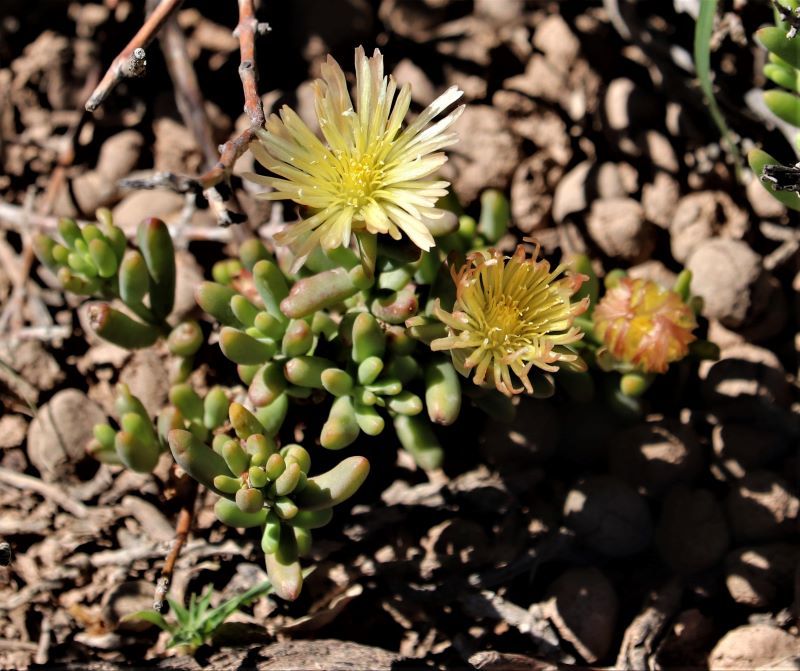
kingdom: Plantae
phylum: Tracheophyta
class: Magnoliopsida
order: Caryophyllales
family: Aizoaceae
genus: Mesembryanthemum
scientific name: Mesembryanthemum rhizophorum
